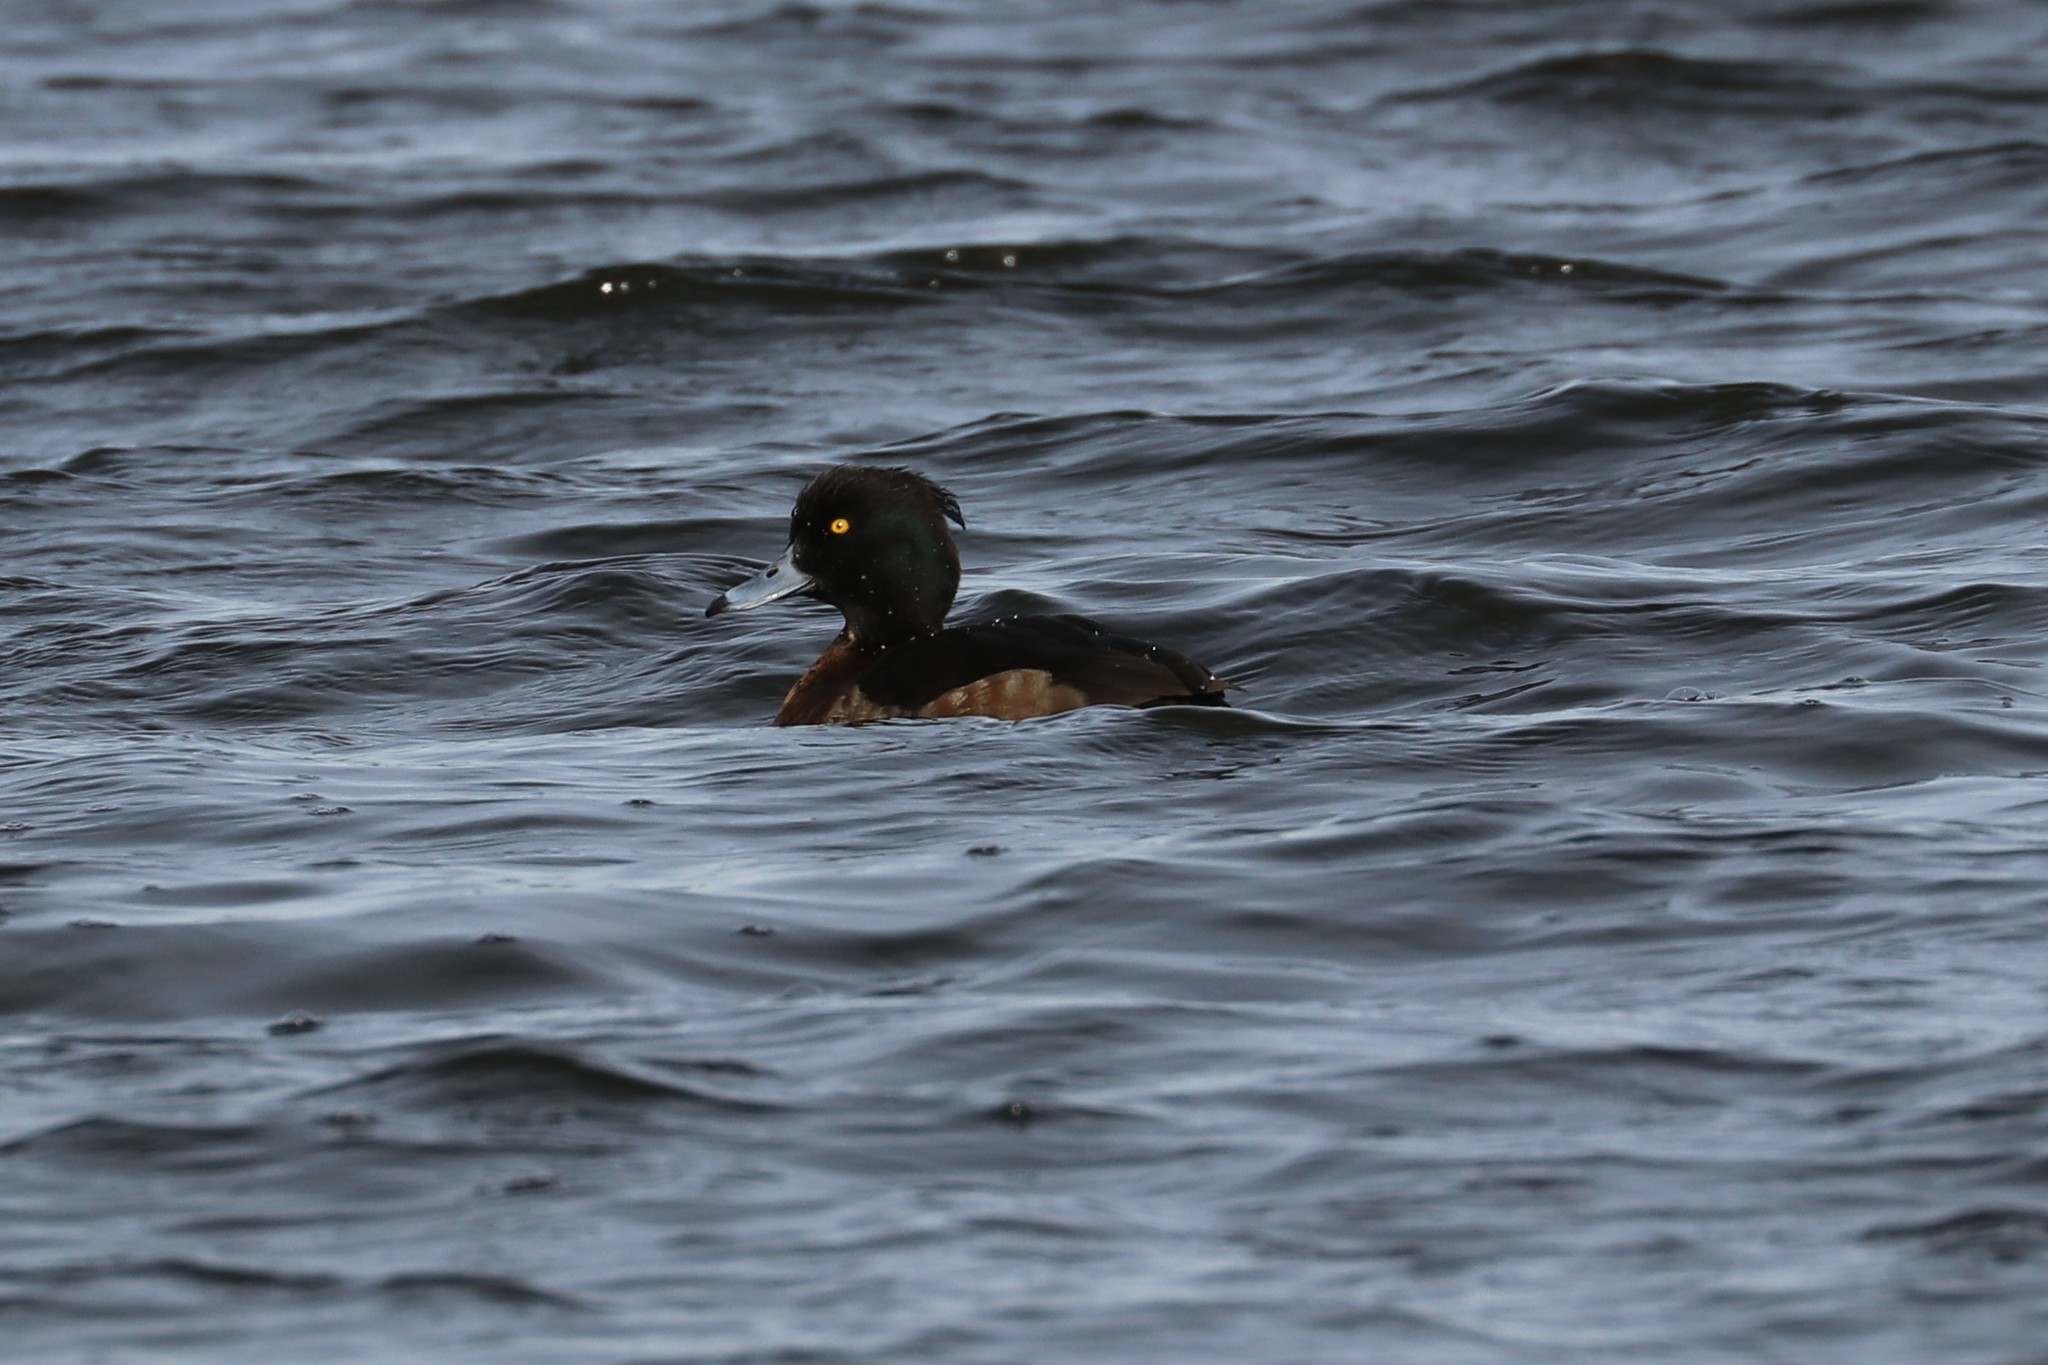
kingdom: Animalia
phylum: Chordata
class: Aves
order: Anseriformes
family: Anatidae
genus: Aythya
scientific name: Aythya fuligula
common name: Tufted duck
